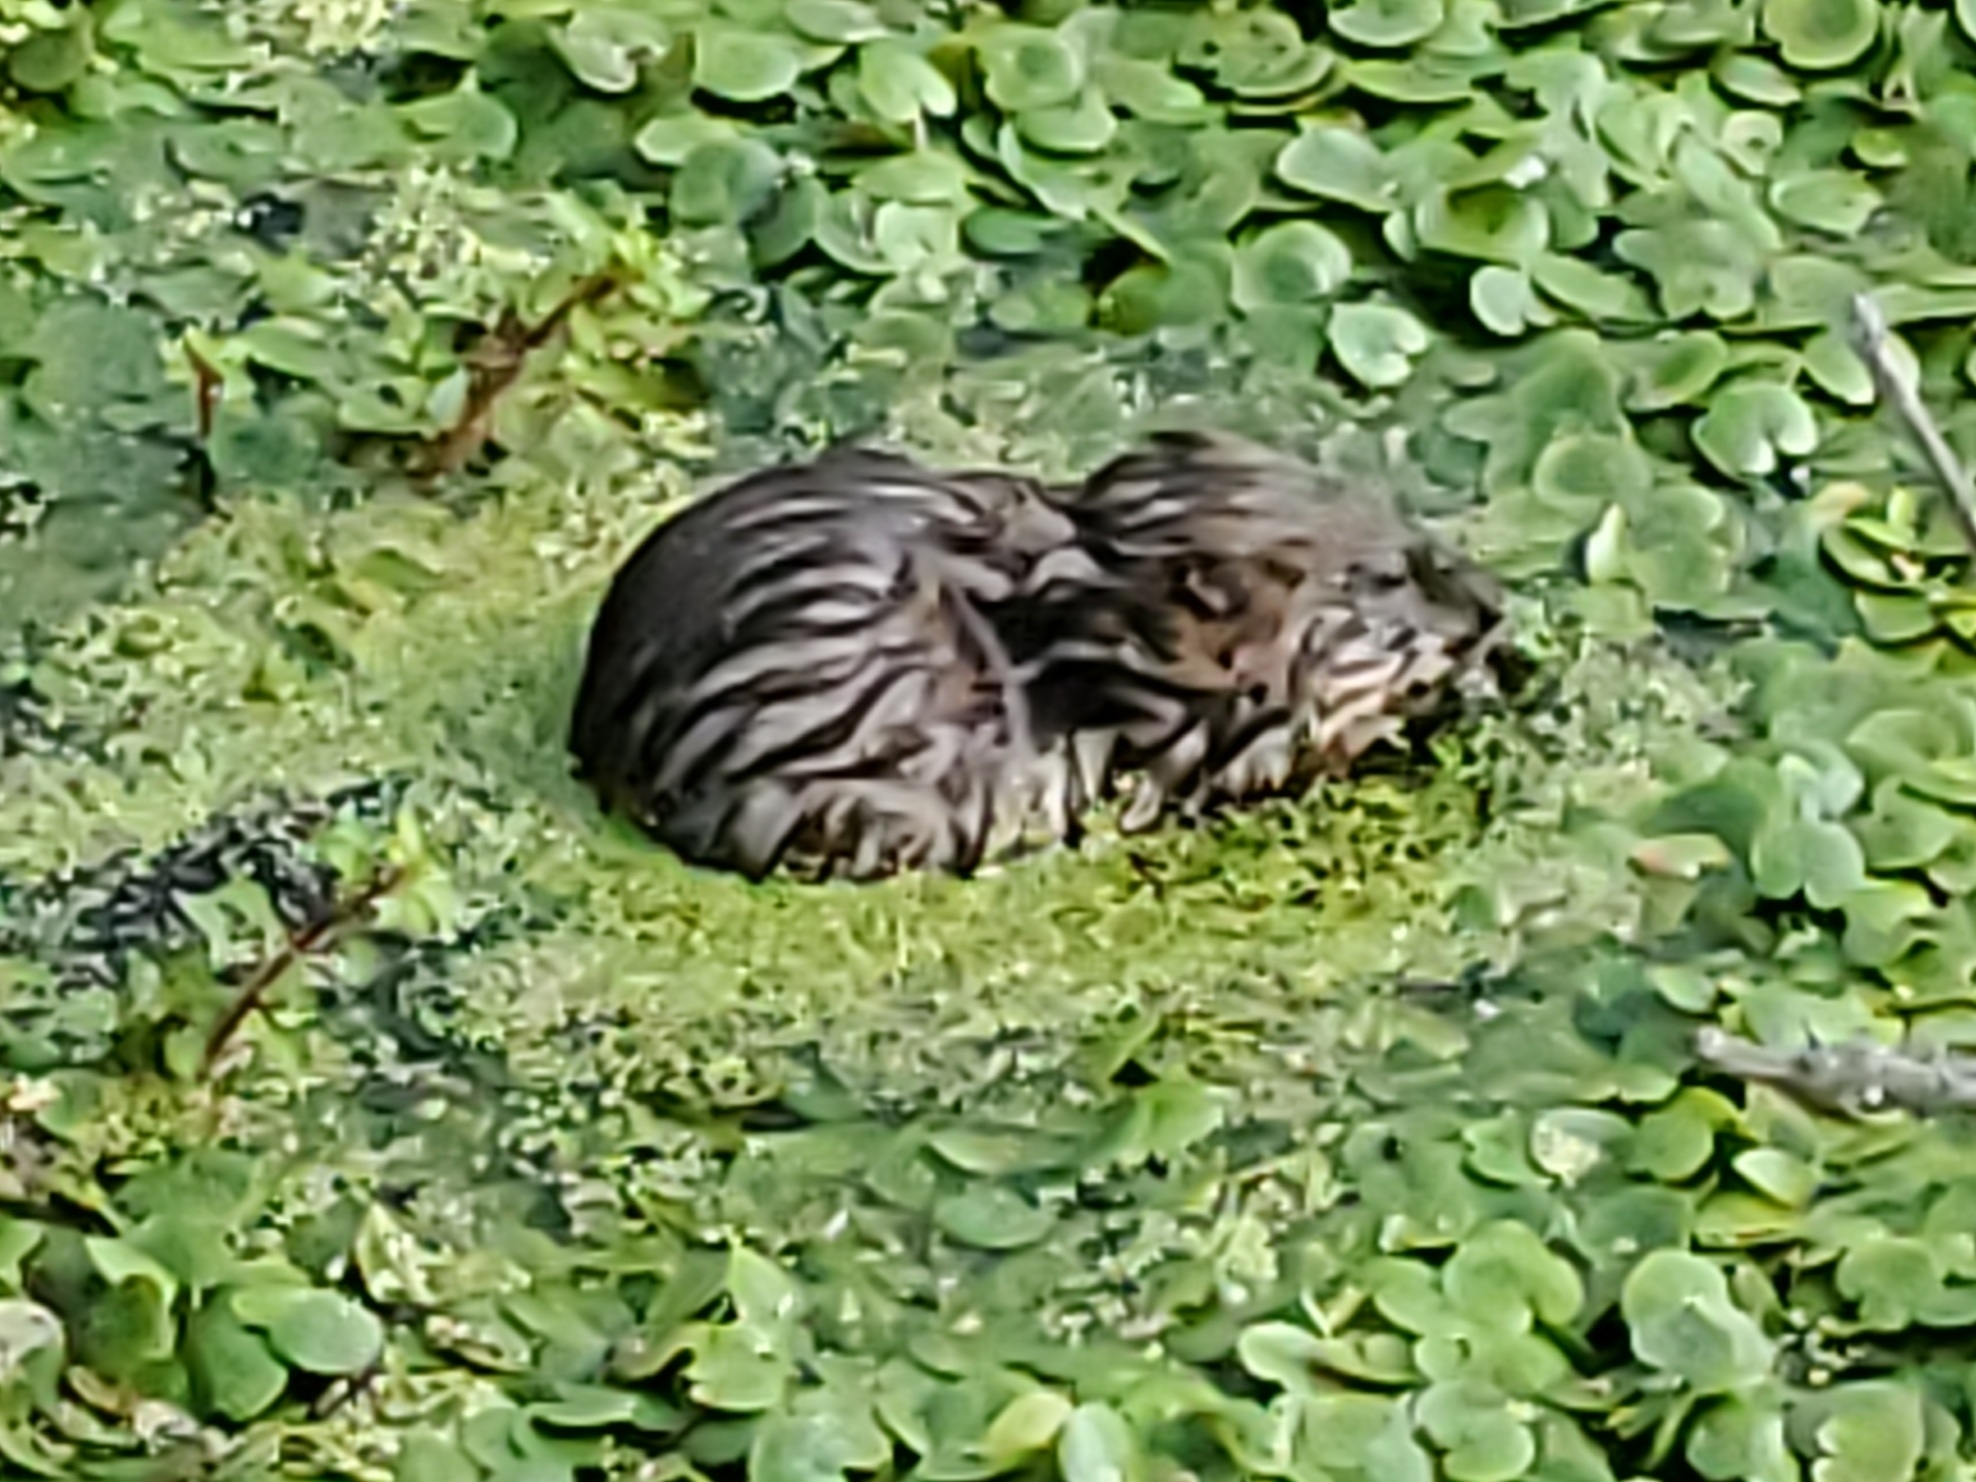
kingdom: Animalia
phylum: Chordata
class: Mammalia
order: Rodentia
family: Cricetidae
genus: Ondatra
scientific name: Ondatra zibethicus
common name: Muskrat
